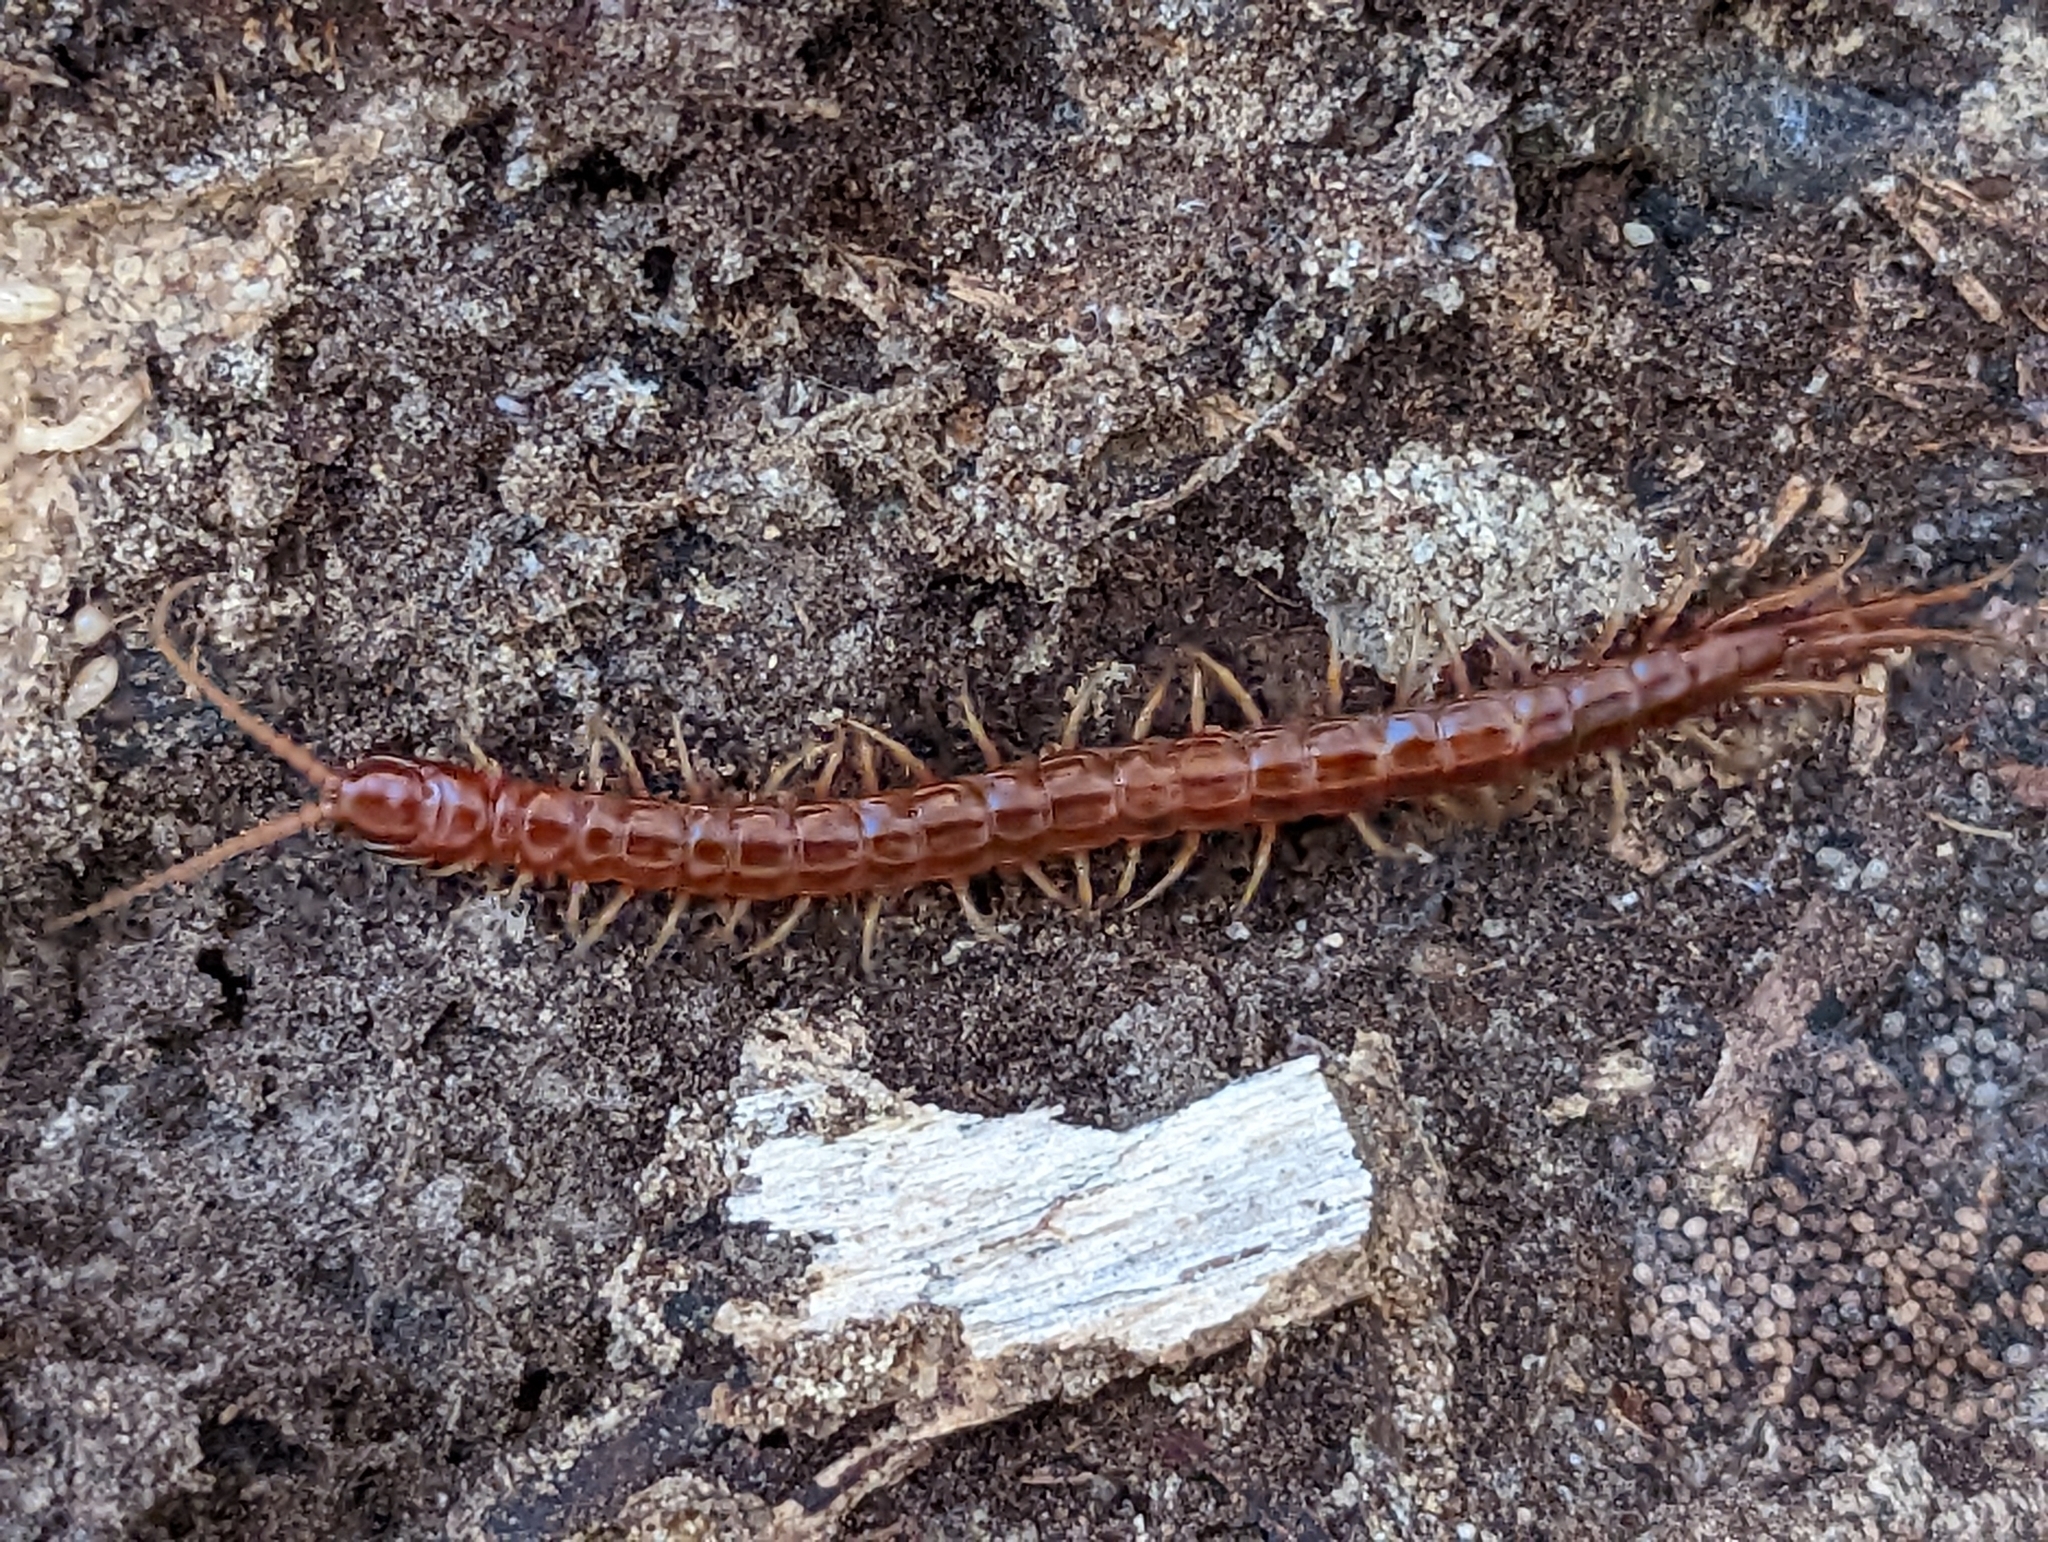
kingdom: Animalia
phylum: Arthropoda
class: Chilopoda
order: Scolopendromorpha
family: Scolopocryptopidae
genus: Scolopocryptops
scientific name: Scolopocryptops sexspinosus
